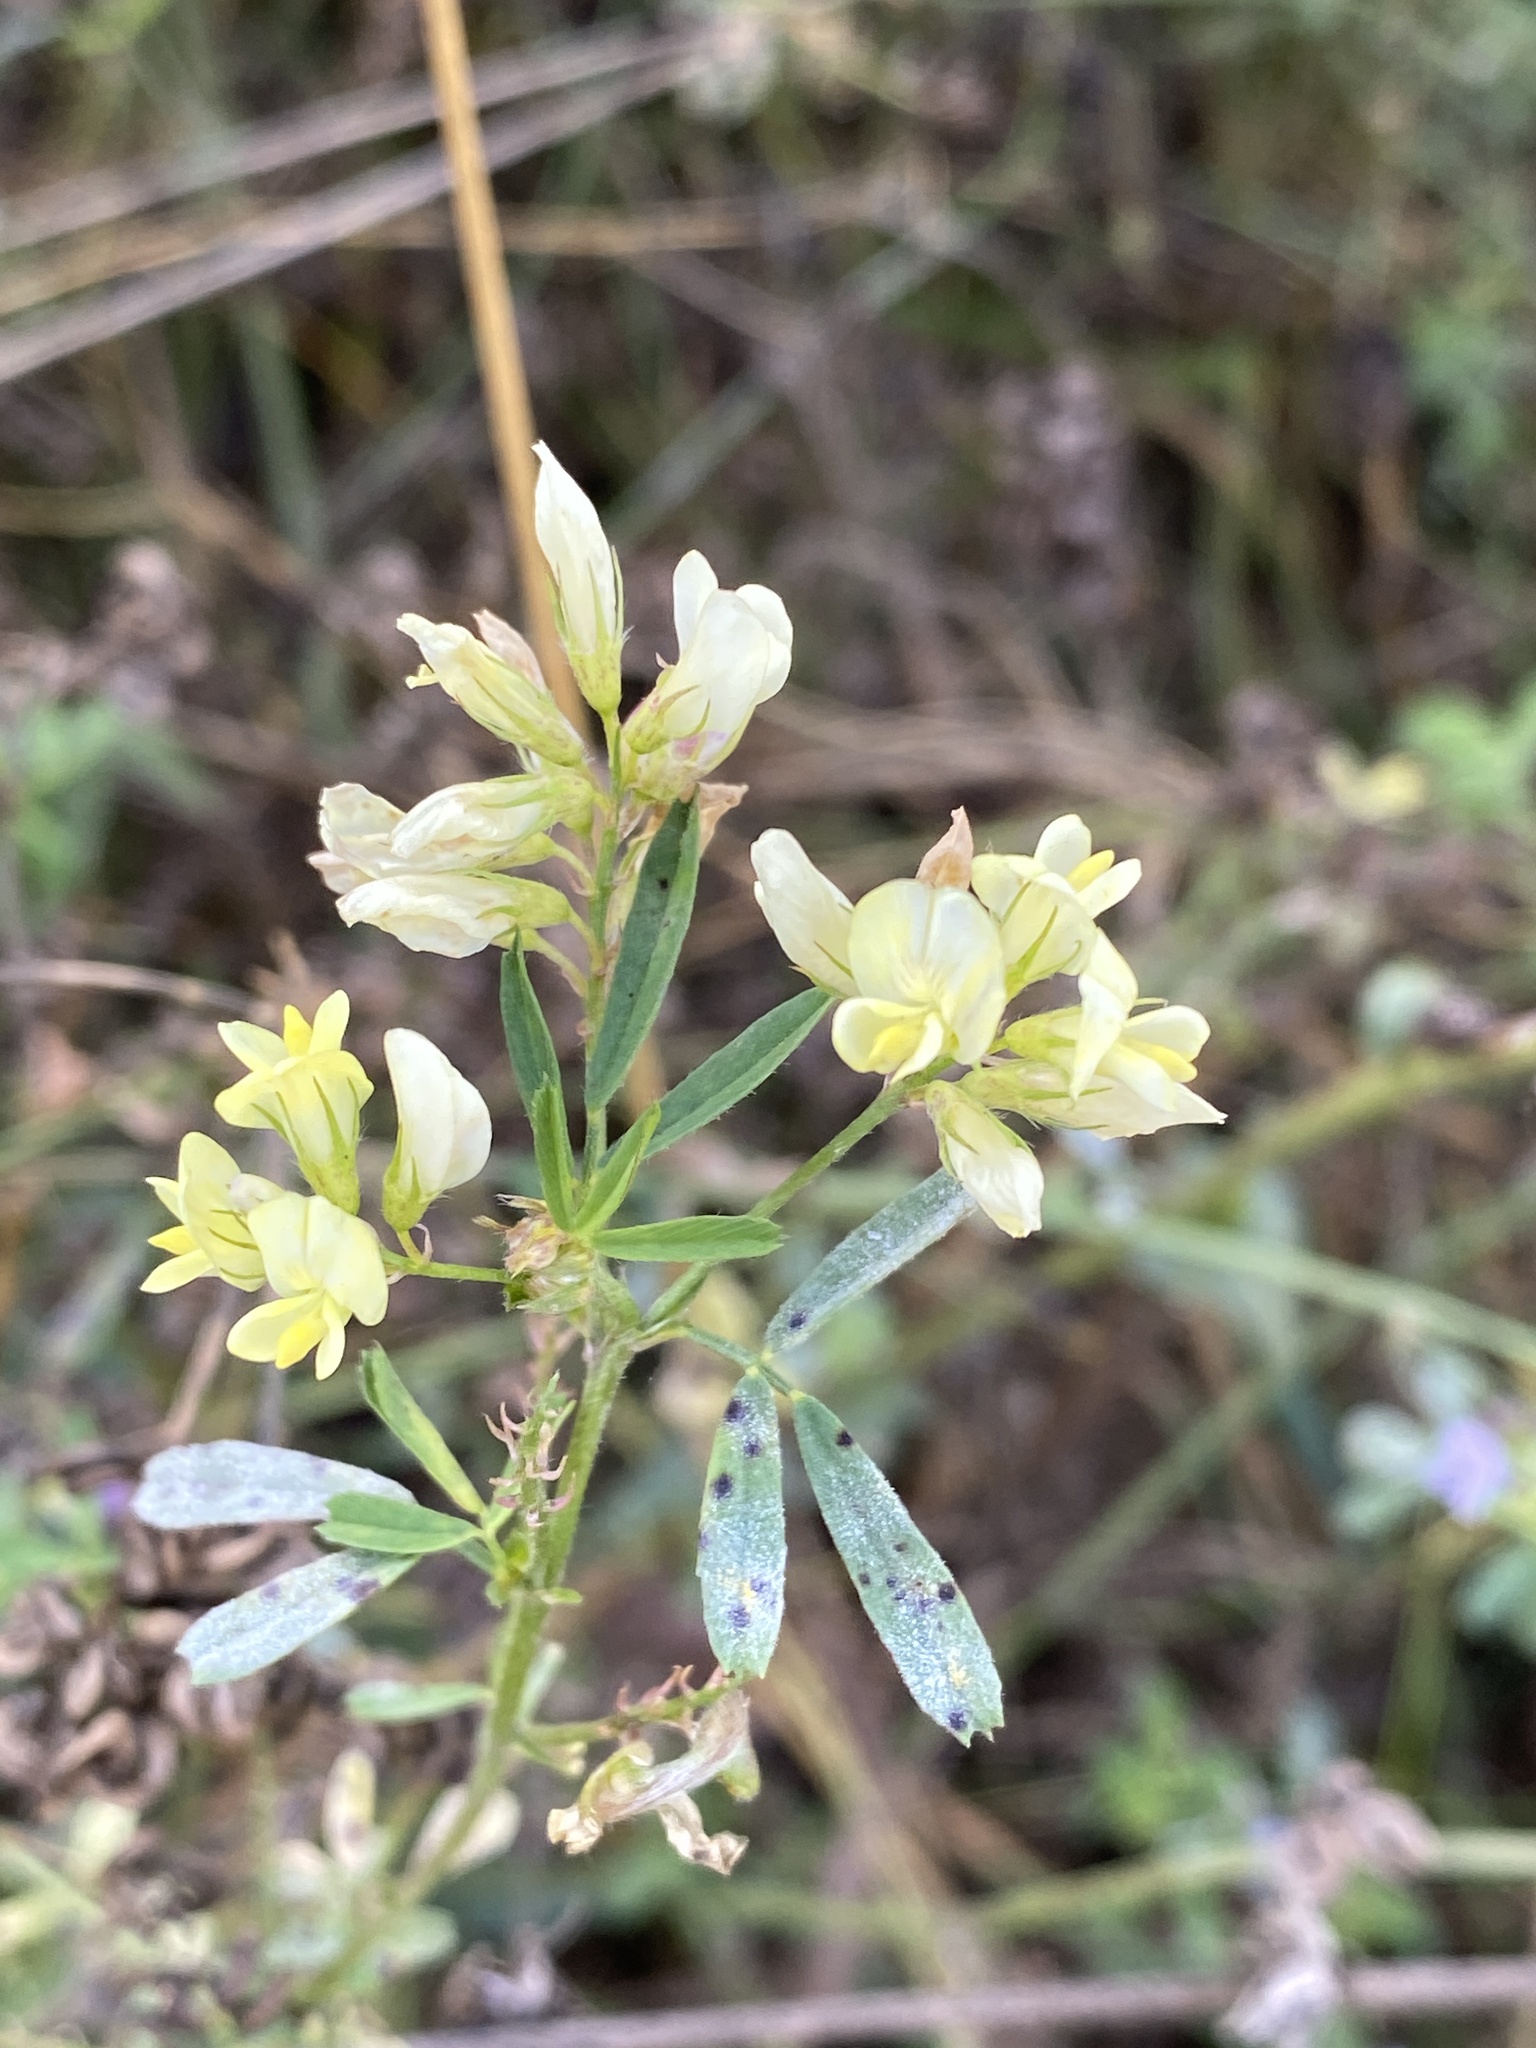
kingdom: Plantae
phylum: Tracheophyta
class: Magnoliopsida
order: Fabales
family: Fabaceae
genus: Medicago
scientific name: Medicago varia
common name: Sand lucerne
